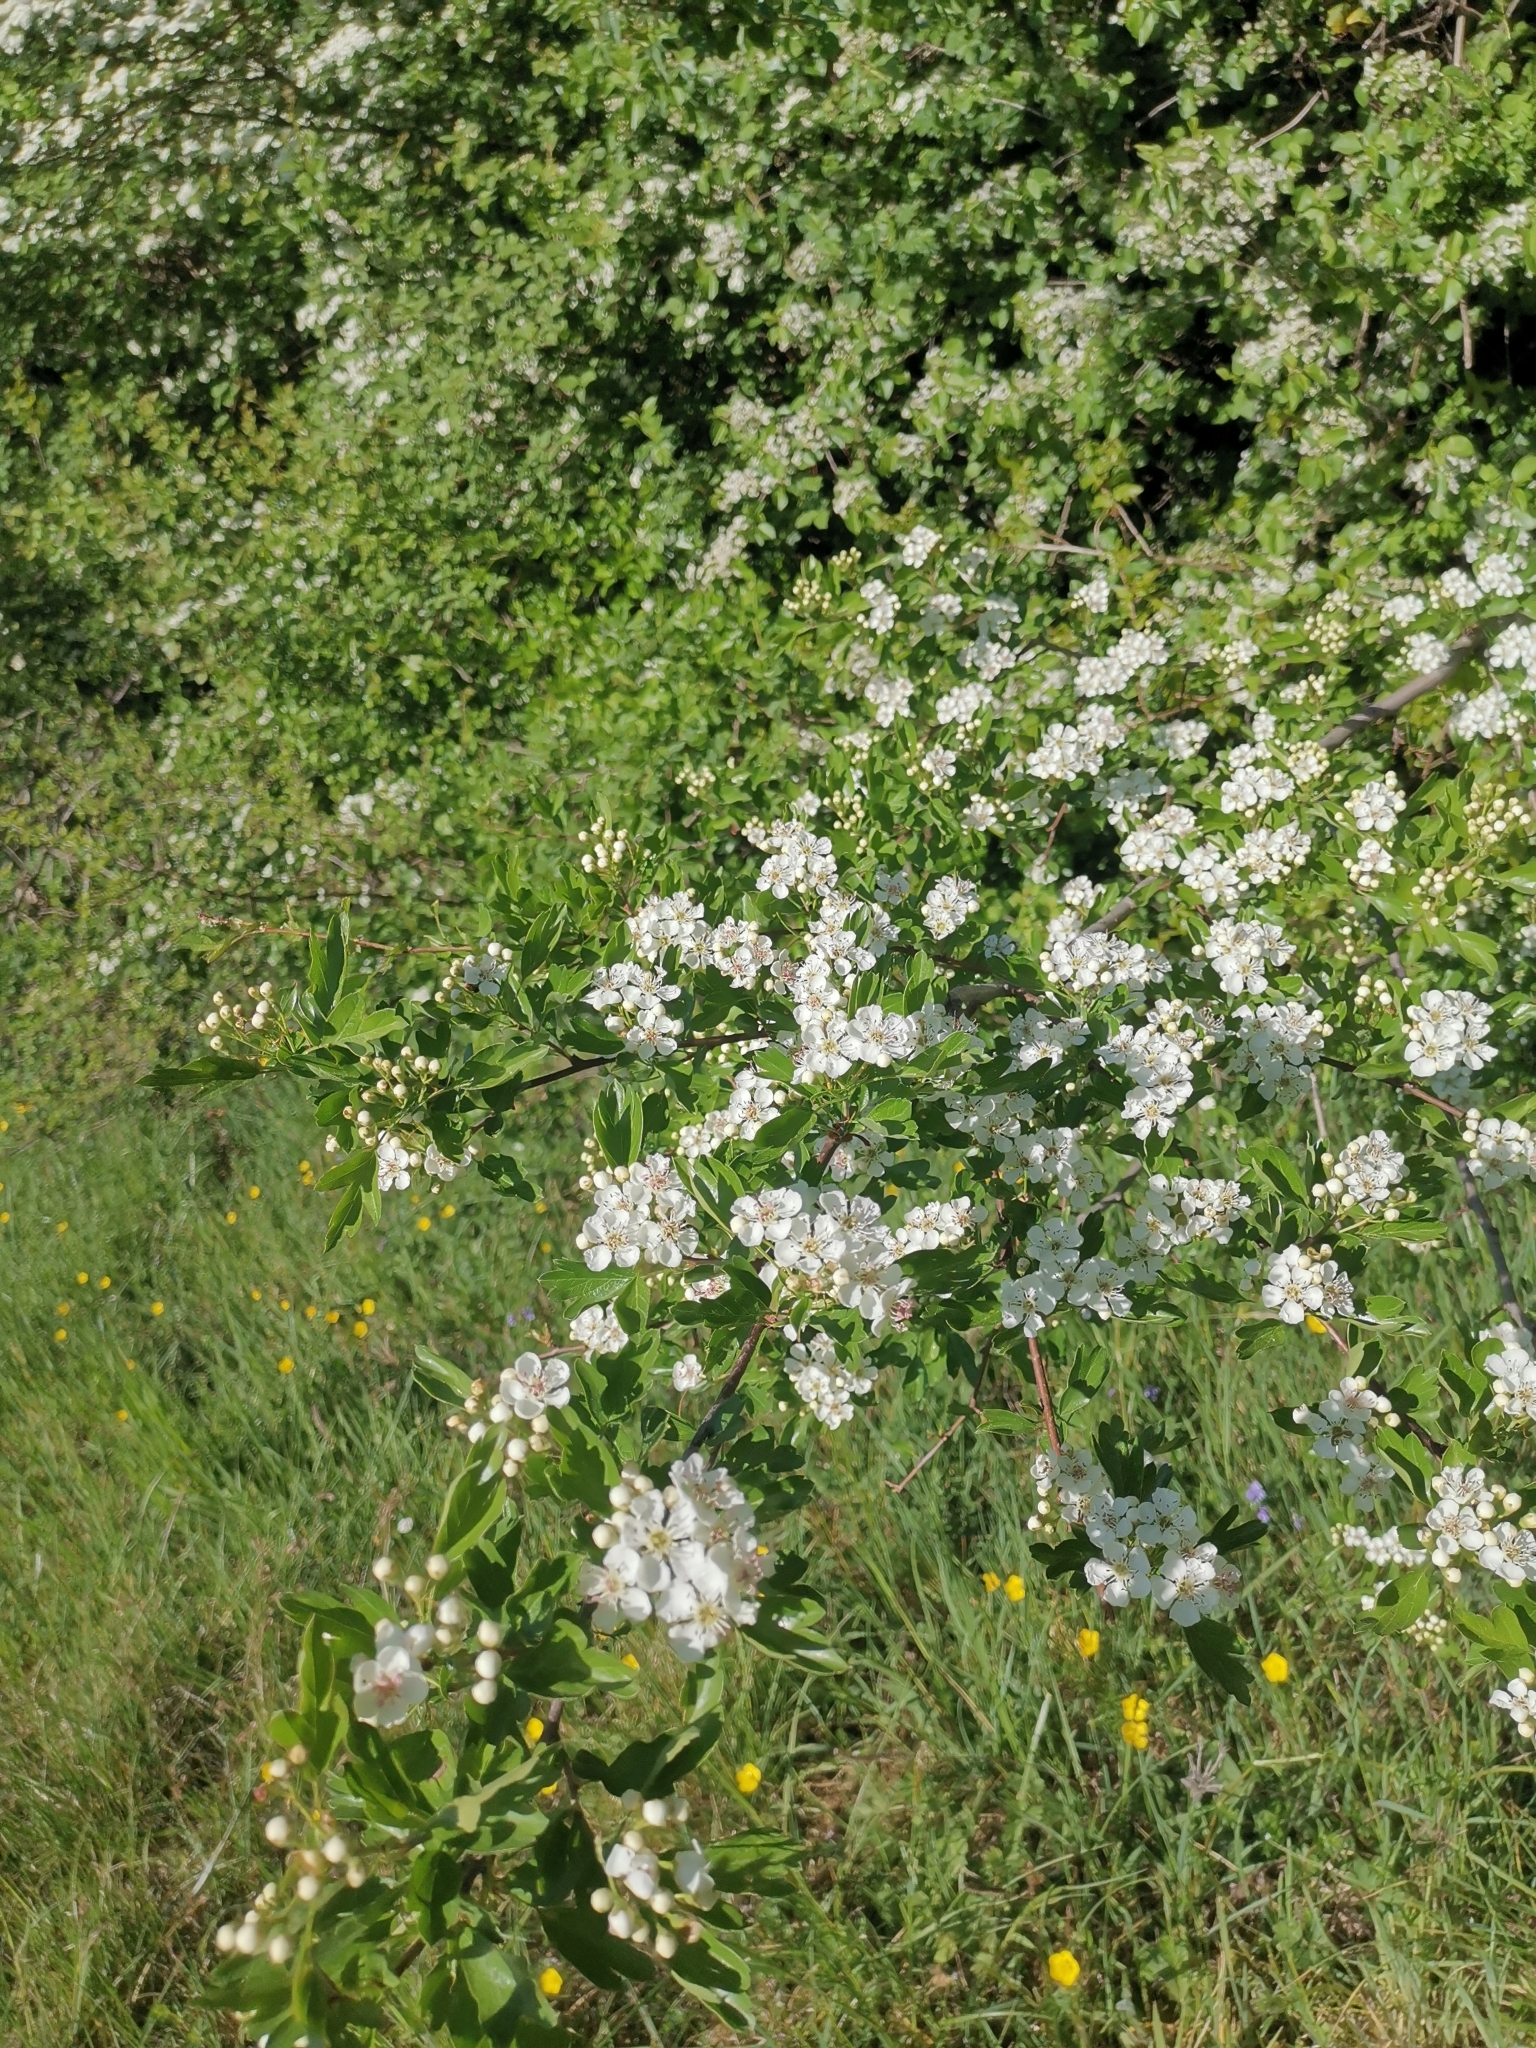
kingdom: Plantae
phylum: Tracheophyta
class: Magnoliopsida
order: Rosales
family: Rosaceae
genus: Crataegus
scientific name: Crataegus monogyna
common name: Hawthorn
